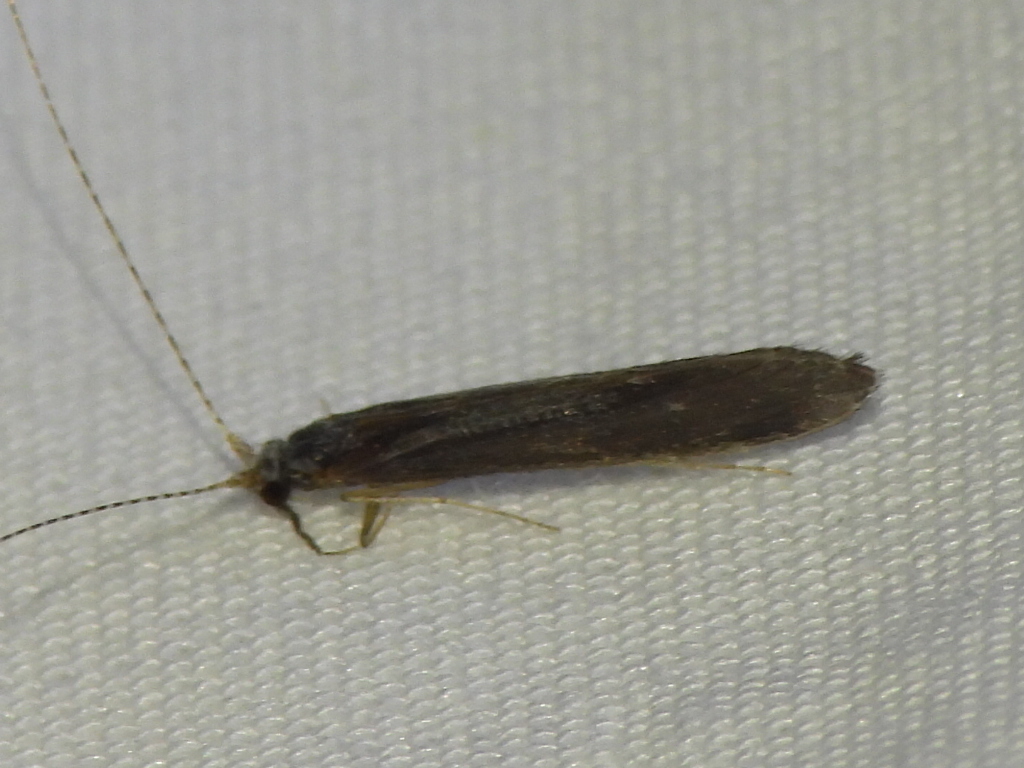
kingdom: Animalia
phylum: Arthropoda
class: Insecta
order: Trichoptera
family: Leptoceridae
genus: Leptocerus
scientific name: Leptocerus americanus
